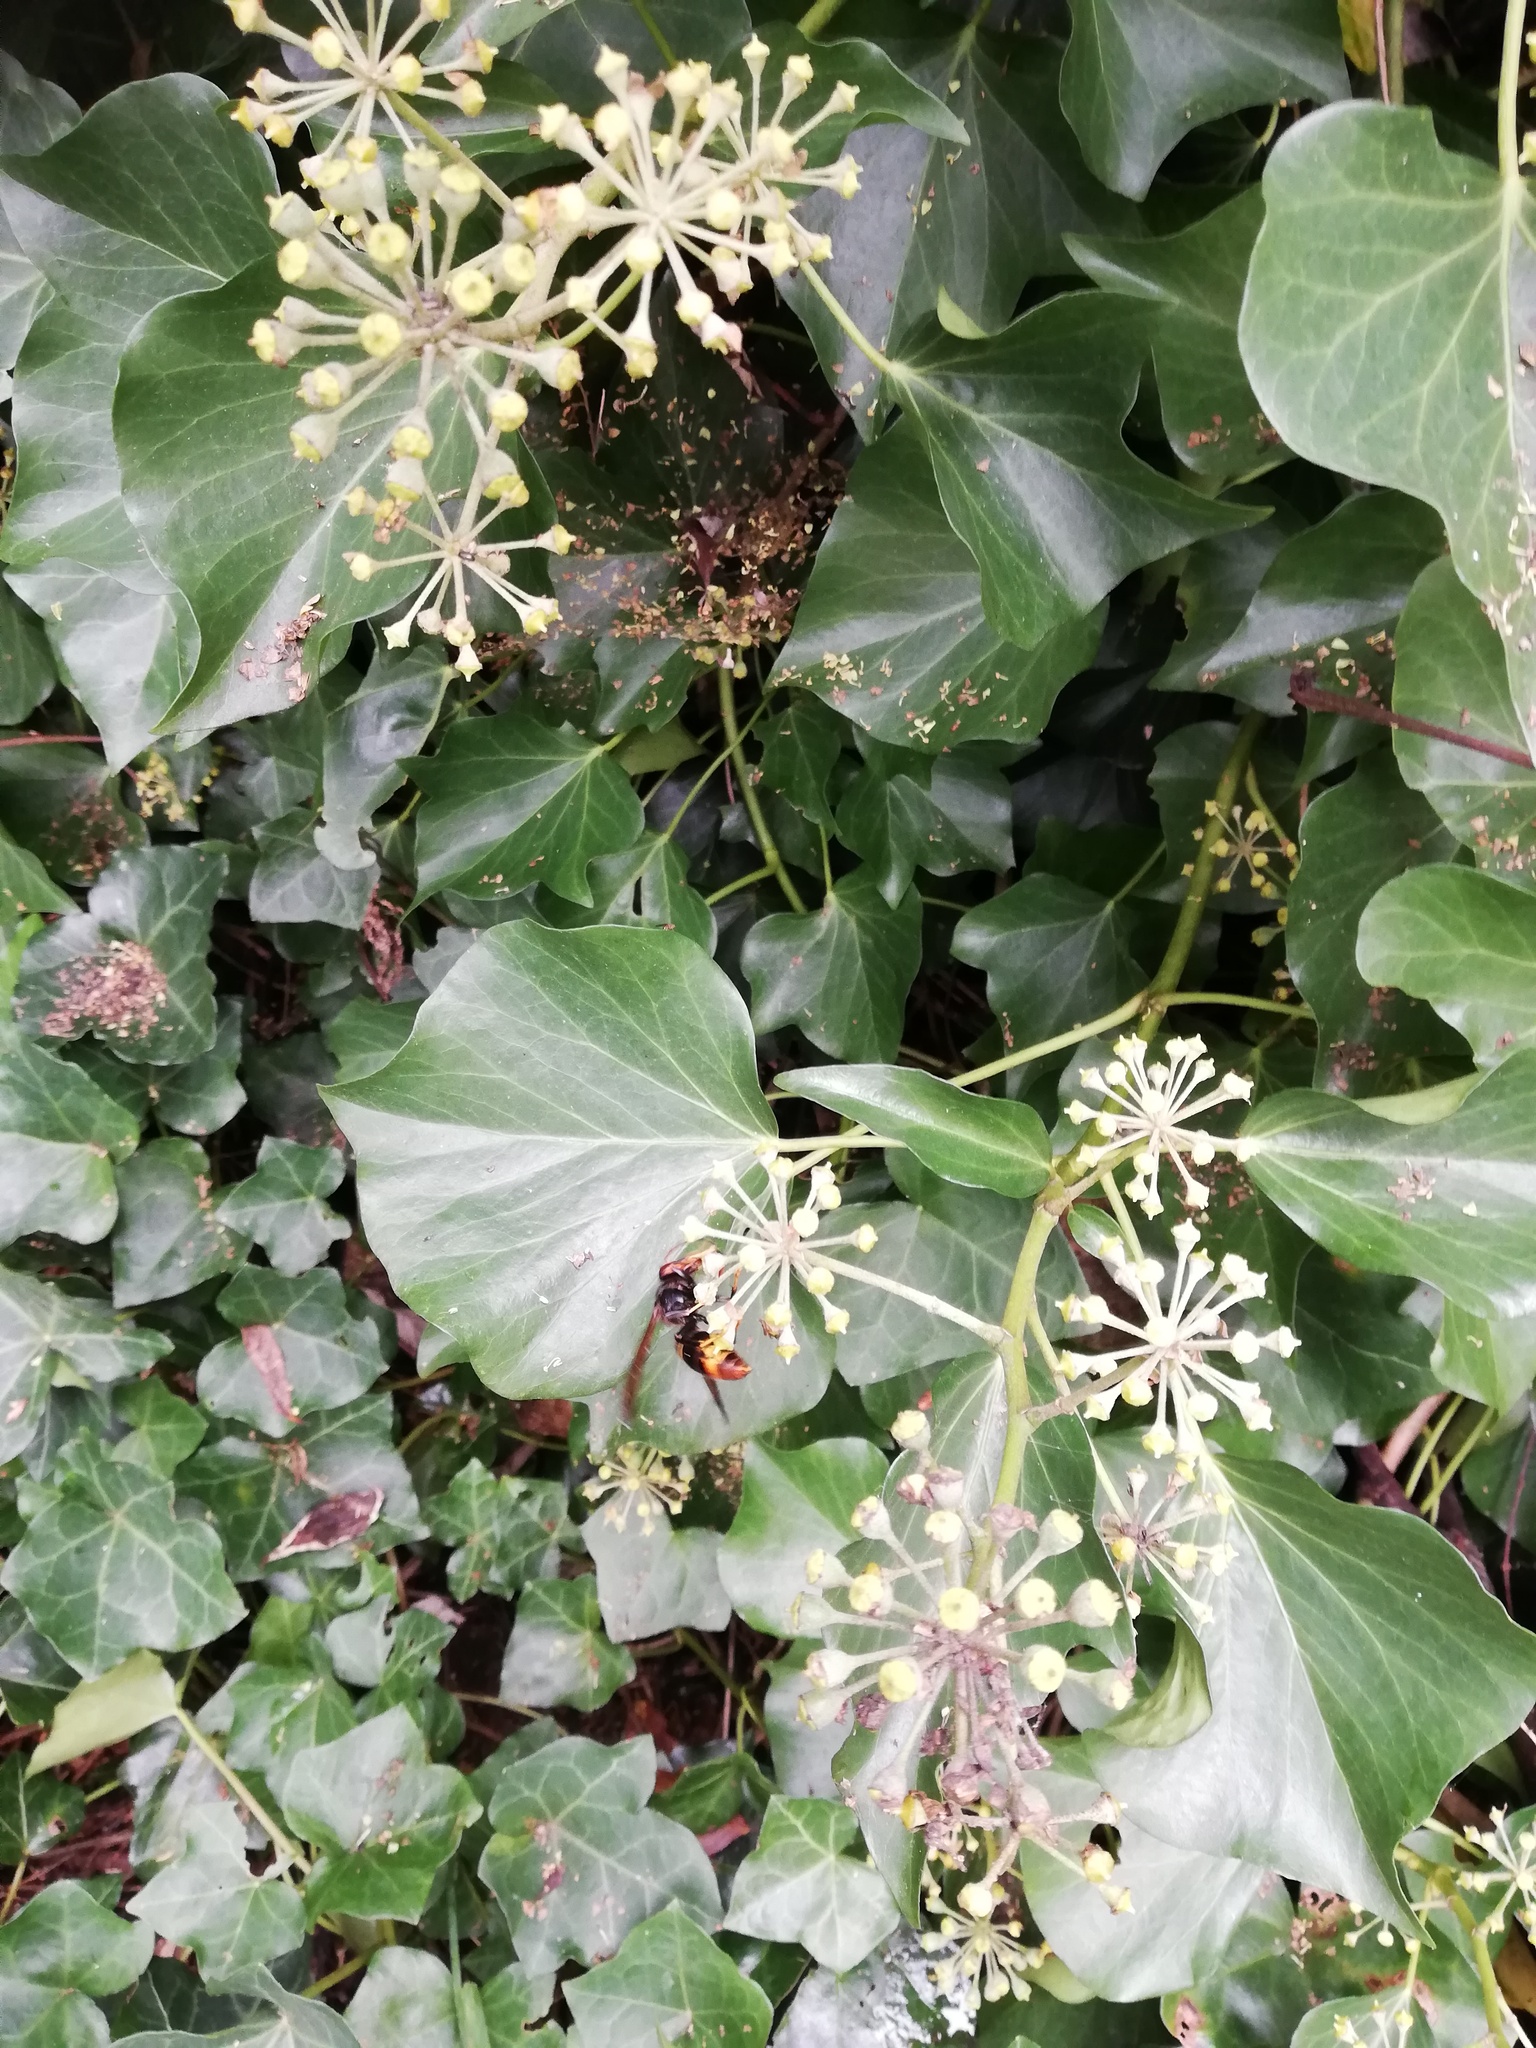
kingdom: Animalia
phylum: Arthropoda
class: Insecta
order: Hymenoptera
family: Vespidae
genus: Vespa
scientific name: Vespa velutina
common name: Asian hornet
